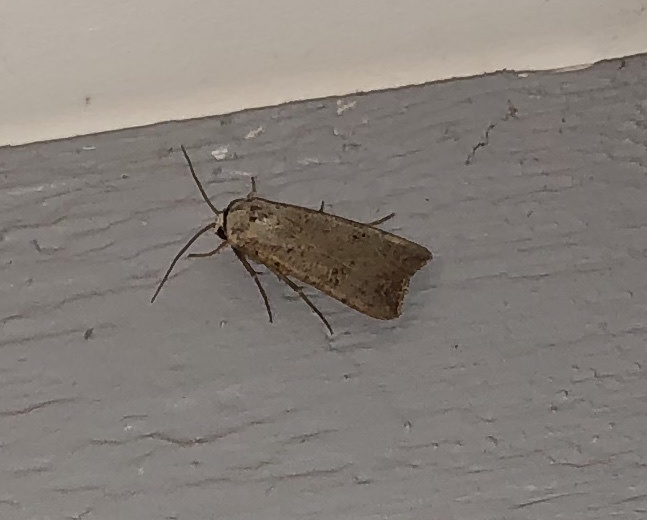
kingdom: Animalia
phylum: Arthropoda
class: Insecta
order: Lepidoptera
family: Noctuidae
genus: Anicla
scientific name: Anicla infecta
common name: Green cutworm
